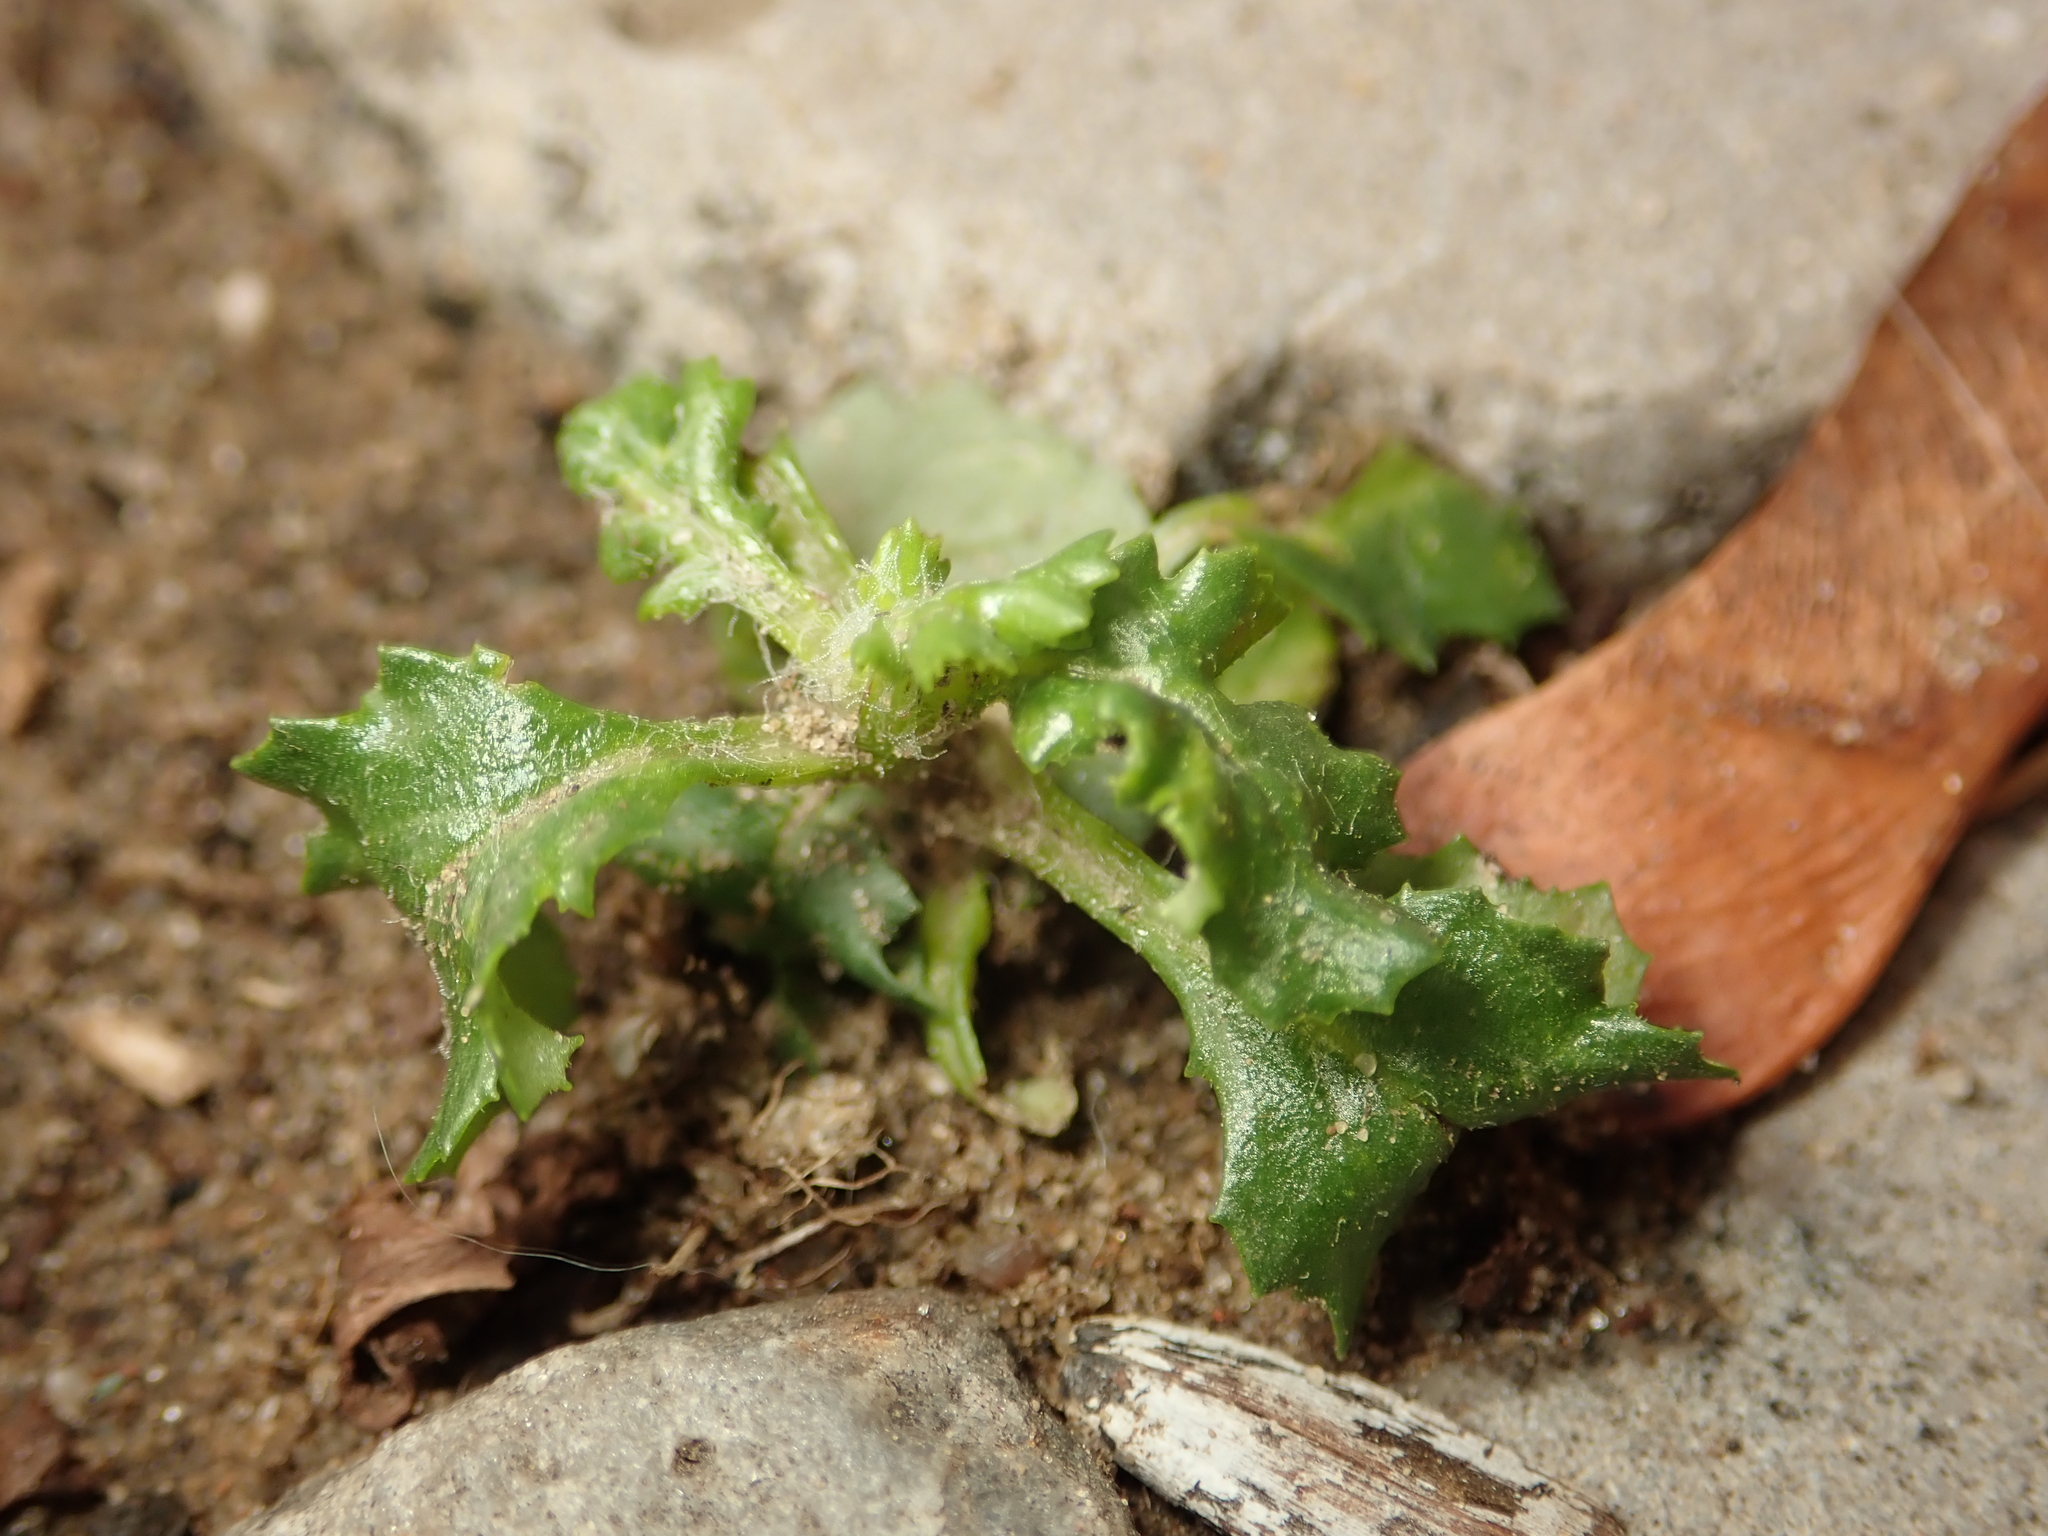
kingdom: Plantae
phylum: Tracheophyta
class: Magnoliopsida
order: Asterales
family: Asteraceae
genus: Senecio
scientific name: Senecio vulgaris
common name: Old-man-in-the-spring
